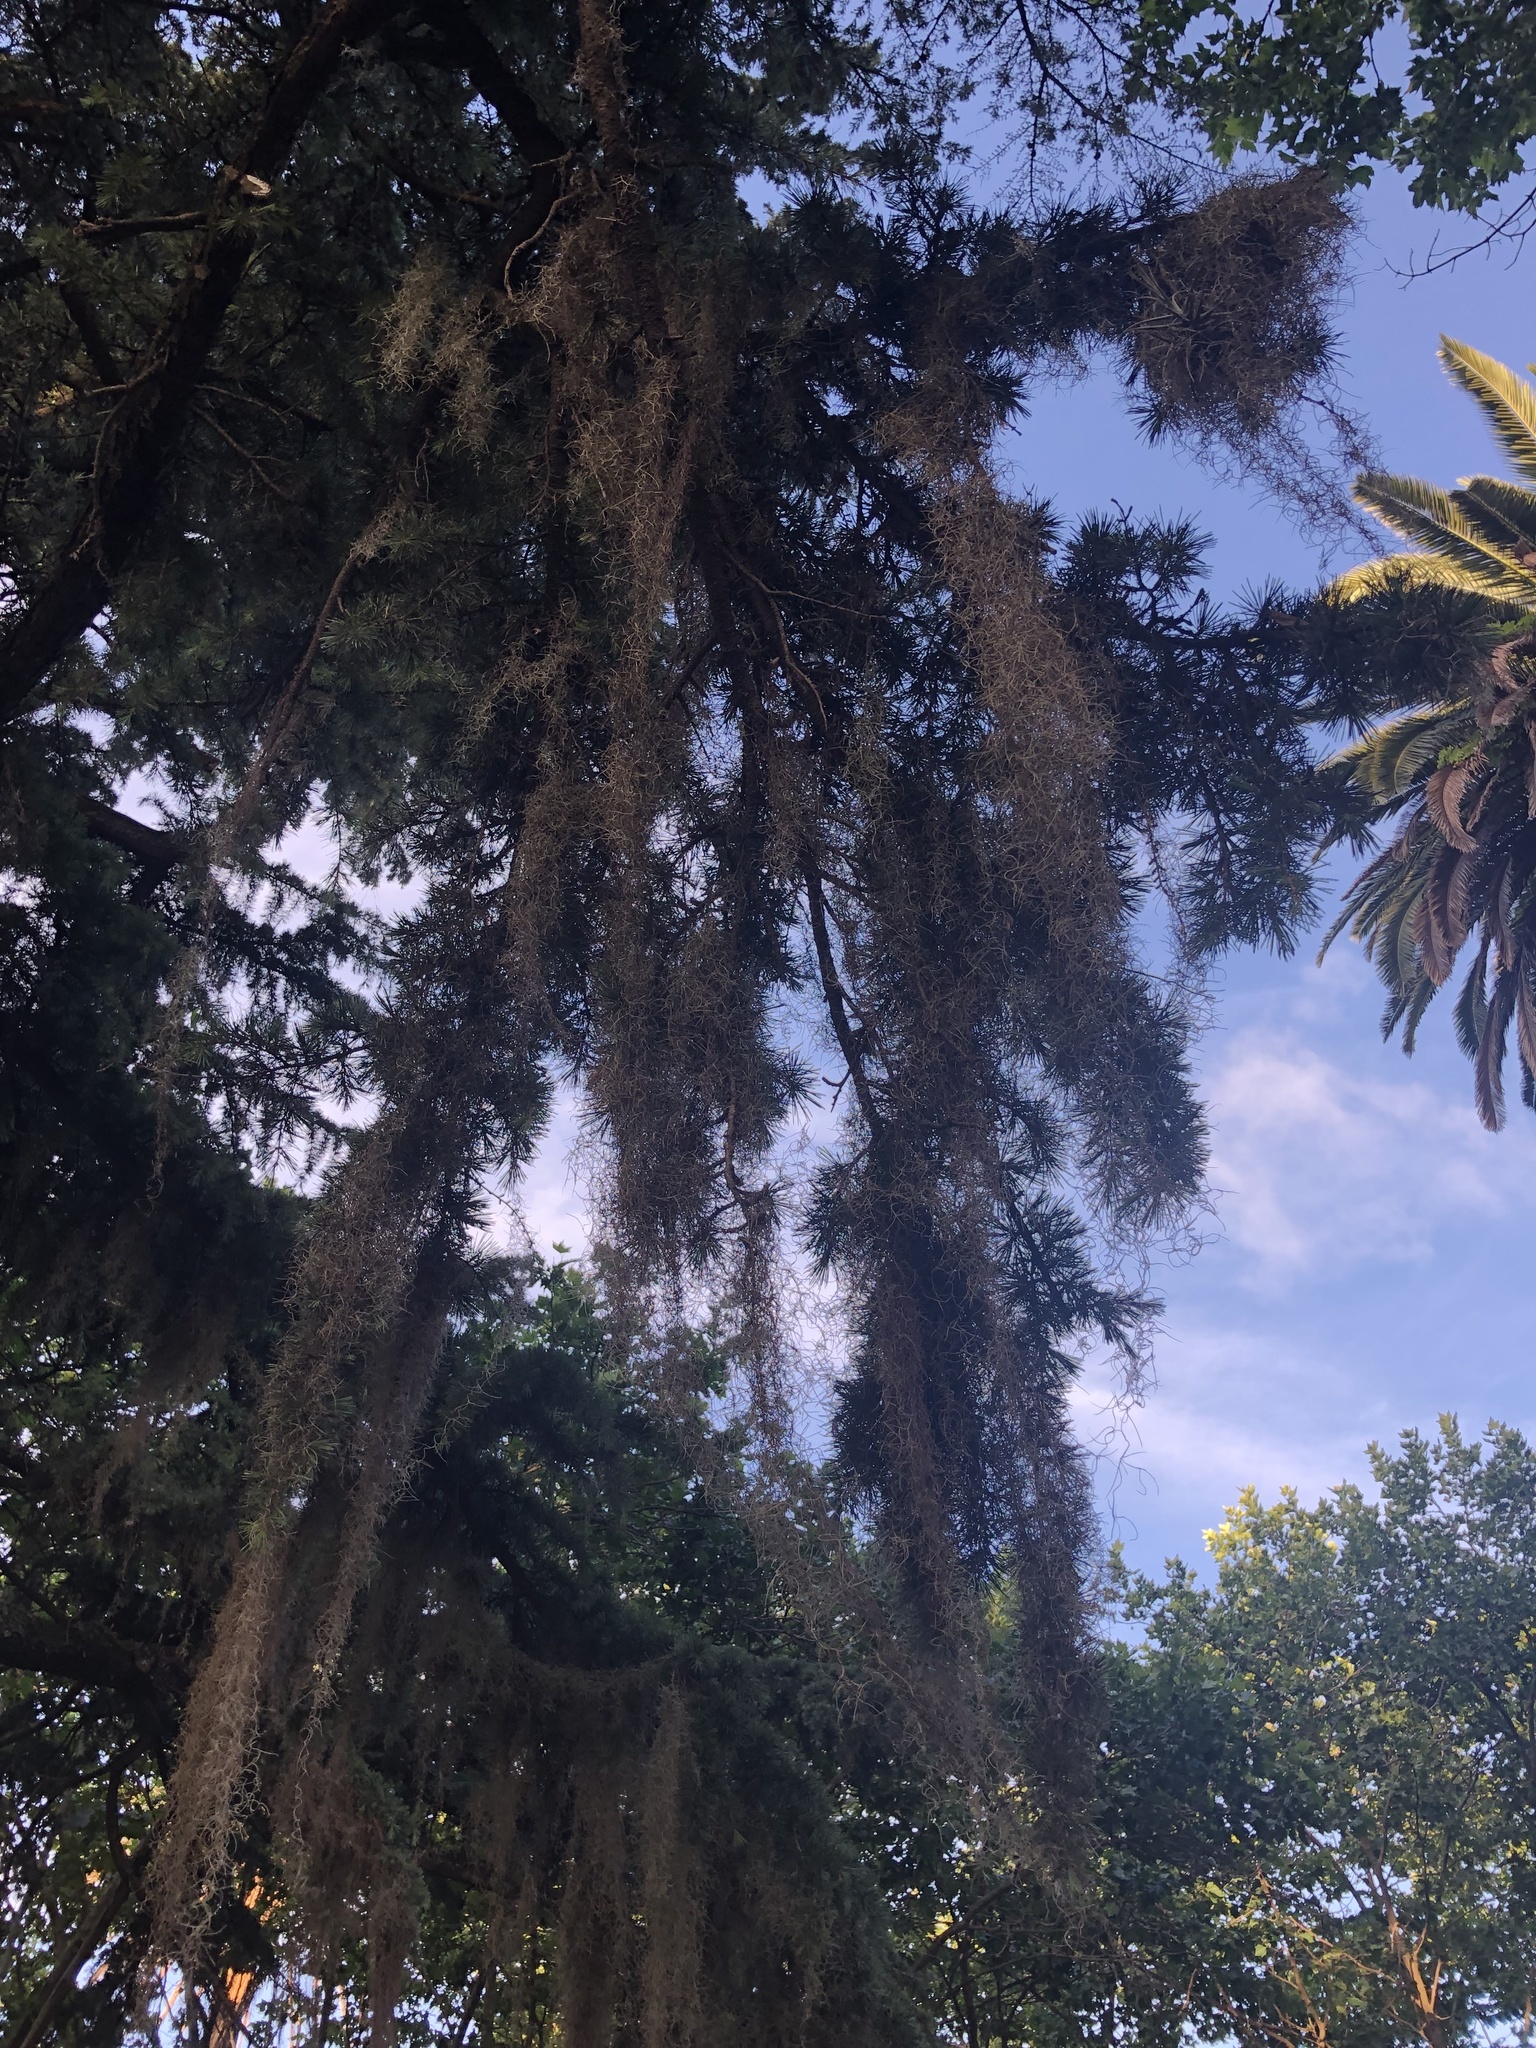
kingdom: Plantae
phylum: Tracheophyta
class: Liliopsida
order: Poales
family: Bromeliaceae
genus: Tillandsia
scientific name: Tillandsia usneoides
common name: Spanish moss
